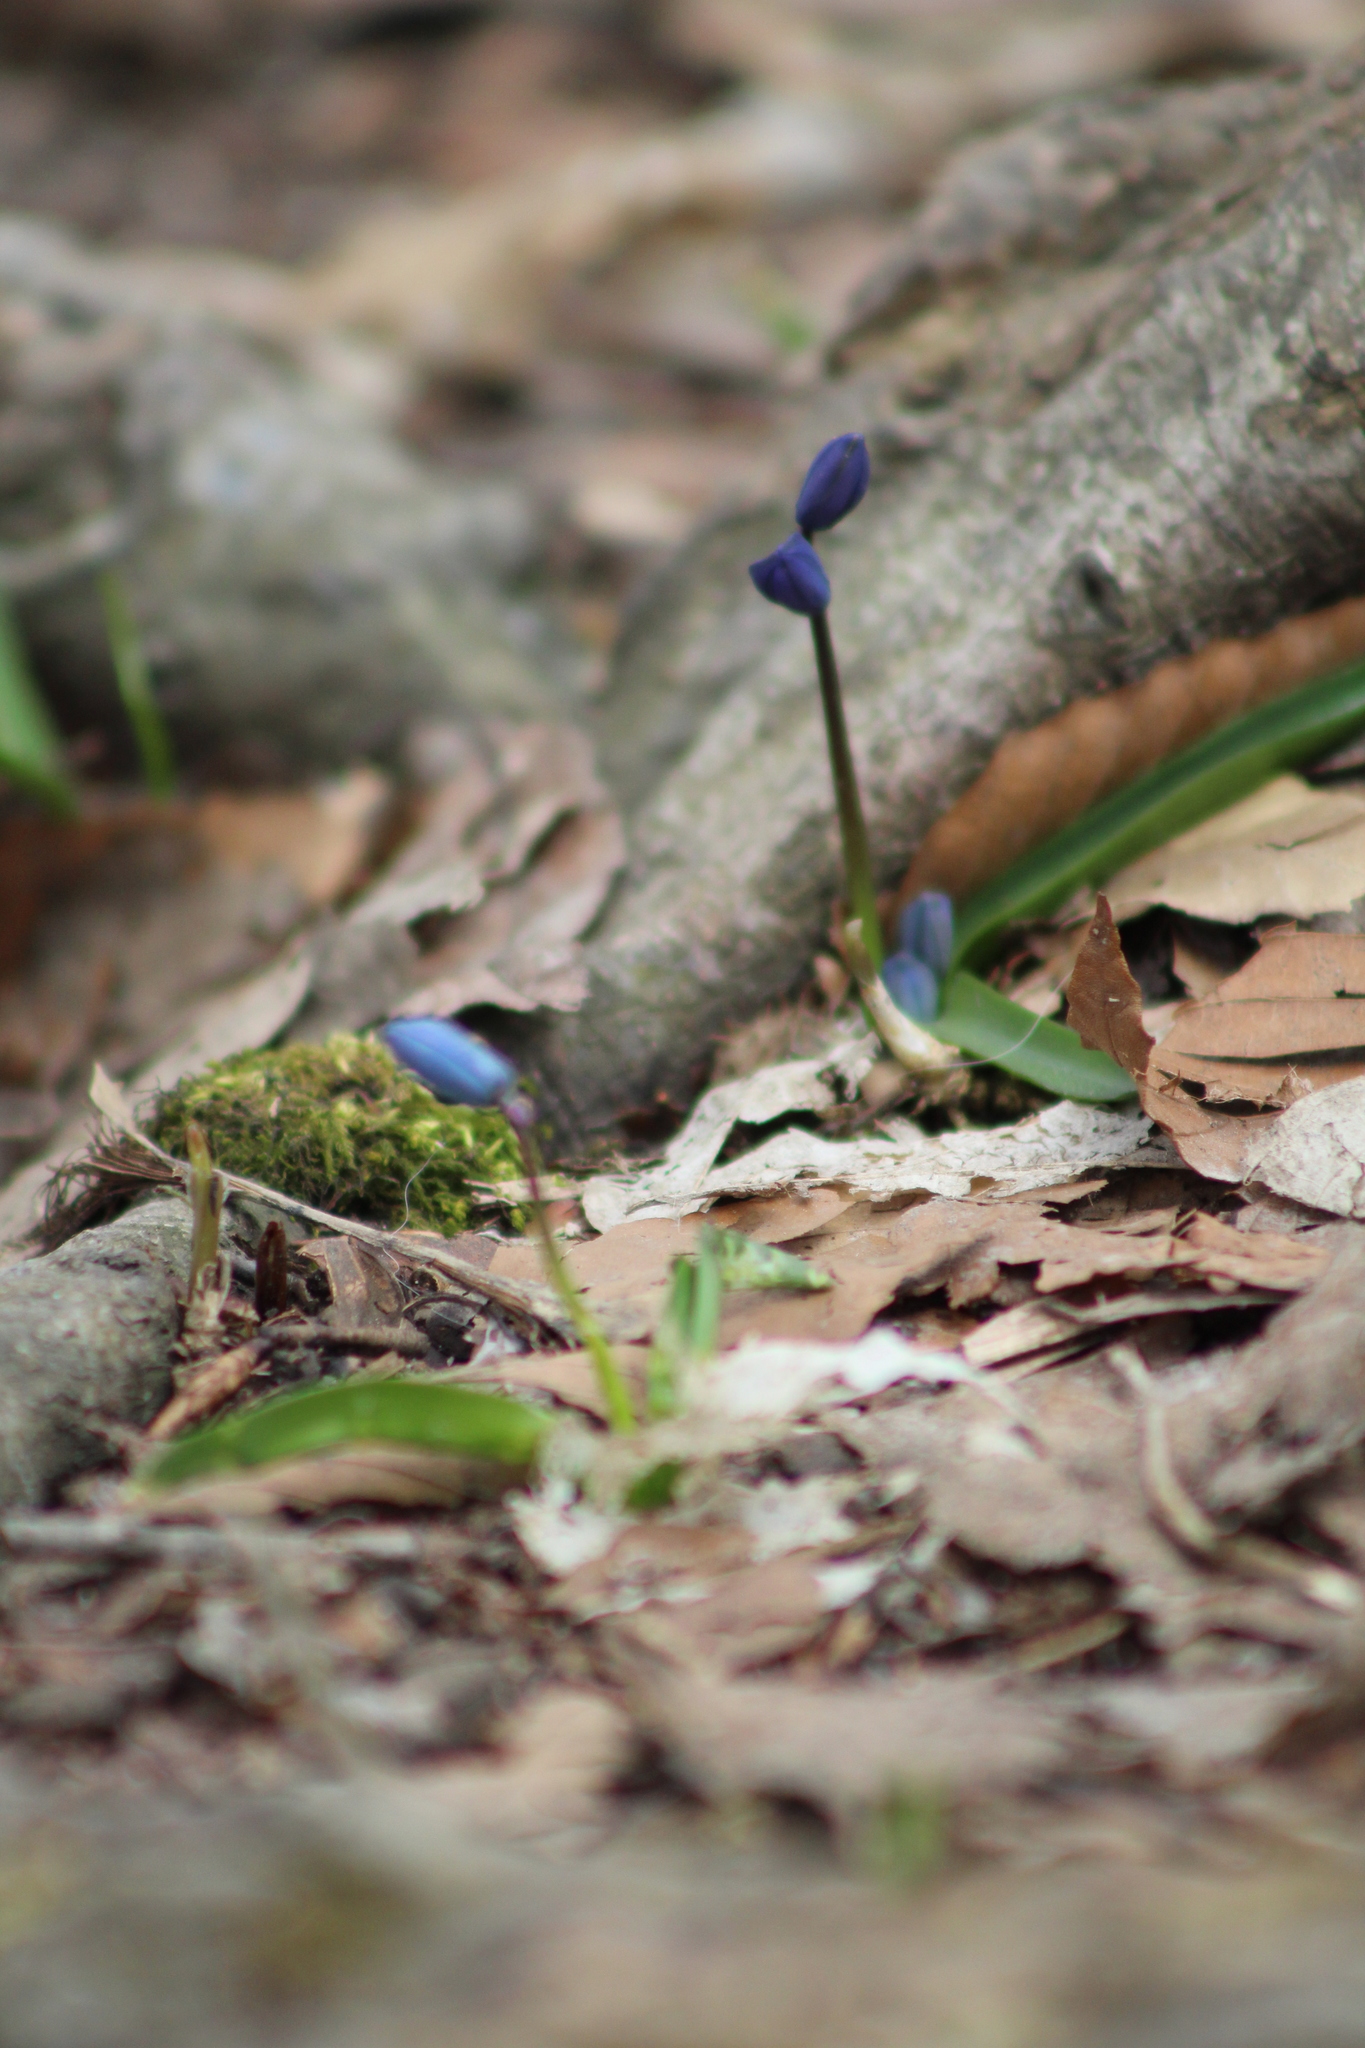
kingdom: Plantae
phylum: Tracheophyta
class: Liliopsida
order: Asparagales
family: Asparagaceae
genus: Scilla
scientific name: Scilla siberica
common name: Siberian squill
